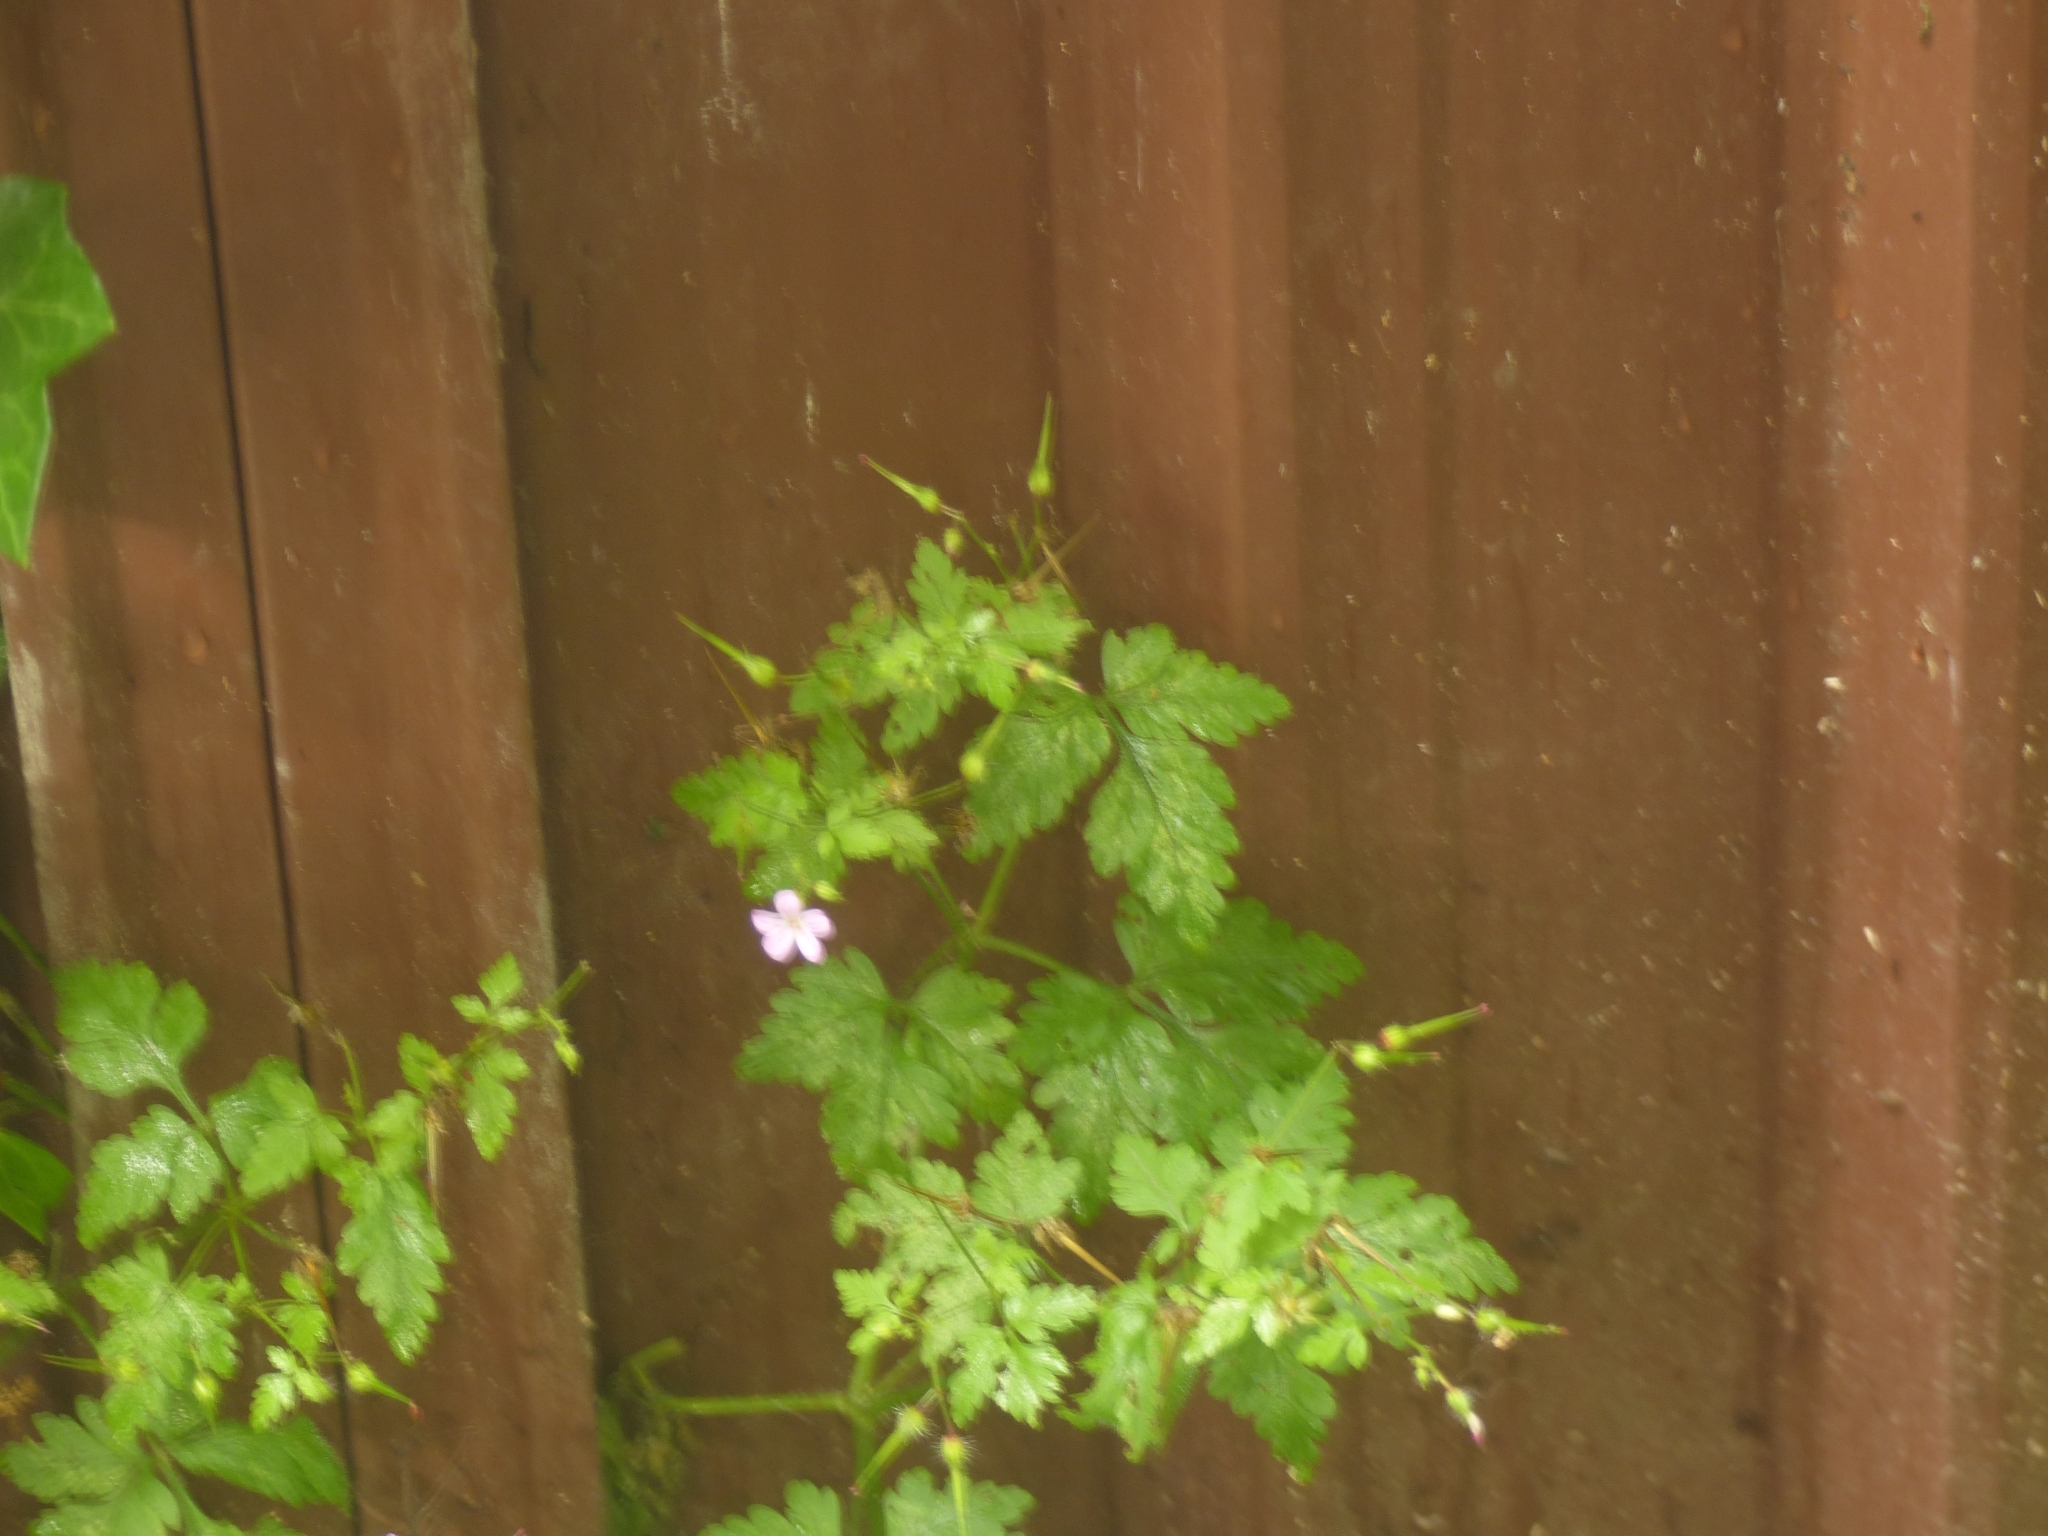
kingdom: Plantae
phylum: Tracheophyta
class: Magnoliopsida
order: Geraniales
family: Geraniaceae
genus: Geranium
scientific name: Geranium robertianum
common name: Herb-robert
